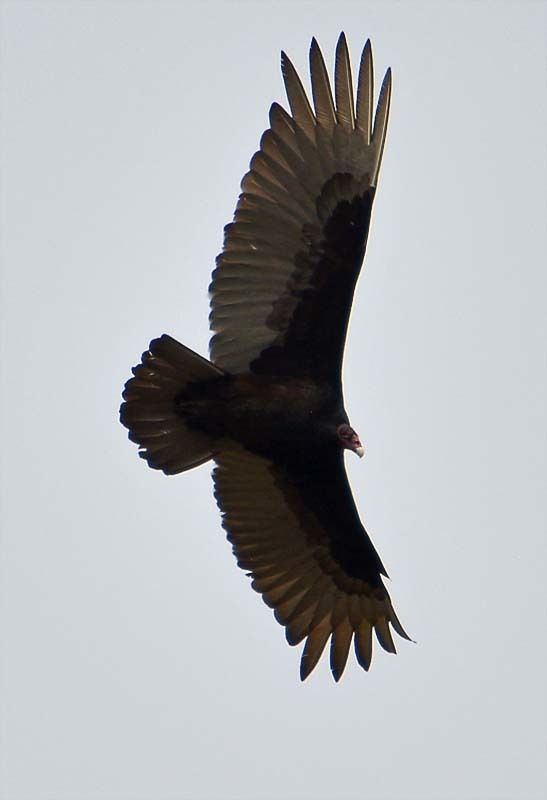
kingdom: Animalia
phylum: Chordata
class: Aves
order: Accipitriformes
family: Cathartidae
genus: Cathartes
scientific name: Cathartes aura
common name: Turkey vulture
